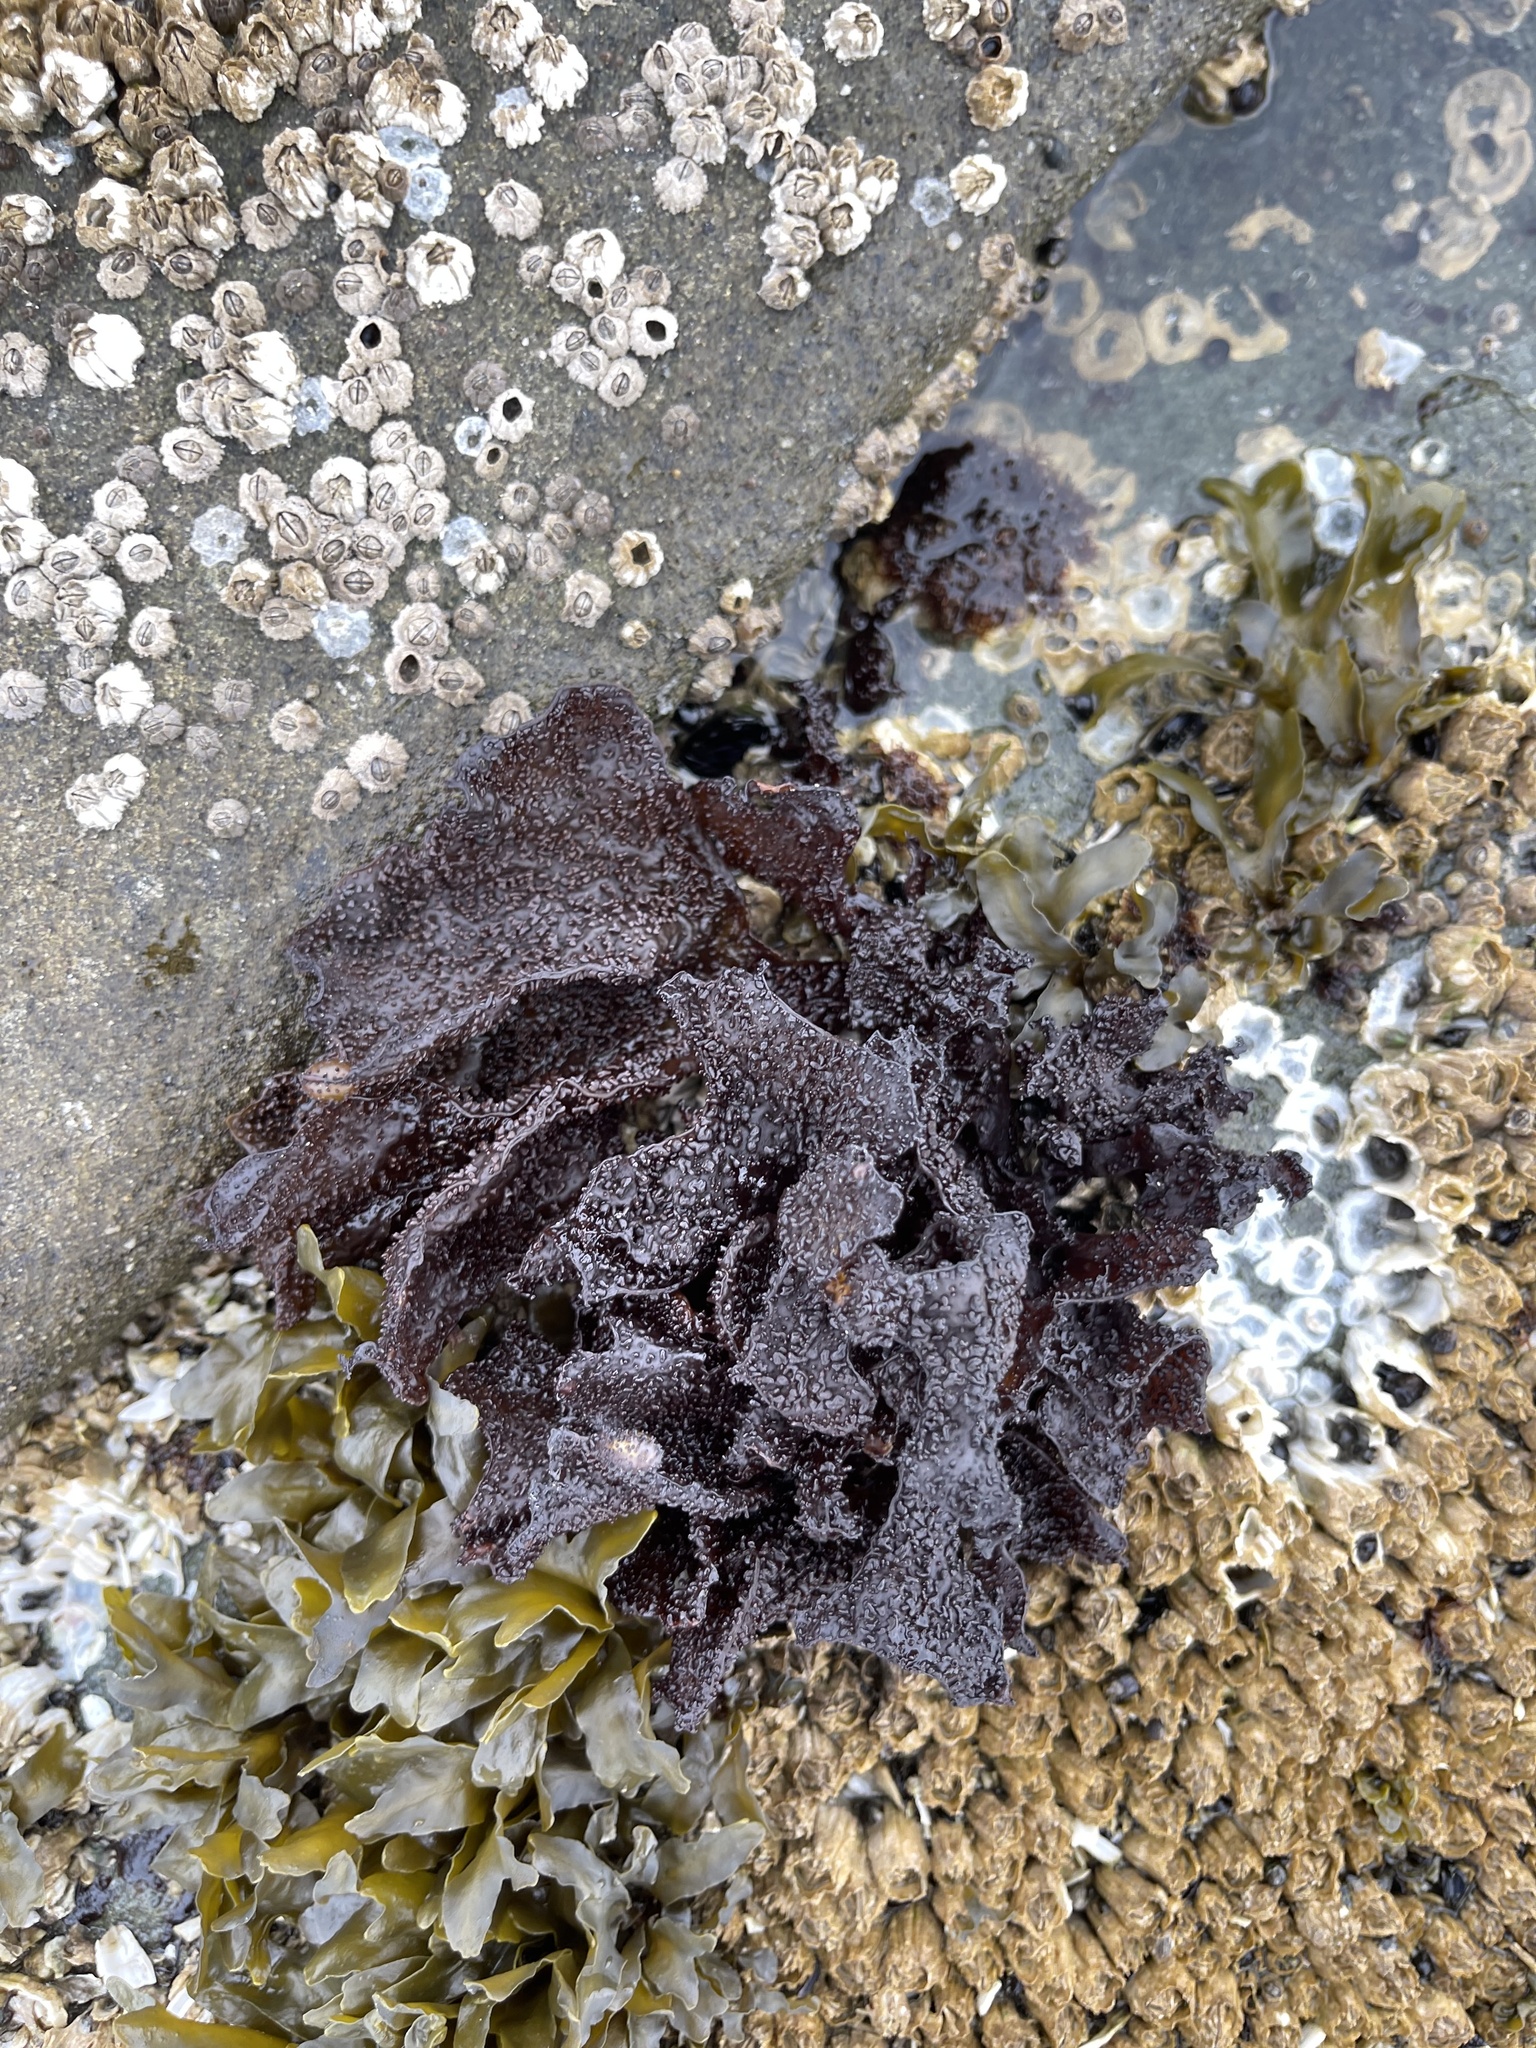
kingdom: Plantae
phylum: Rhodophyta
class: Florideophyceae
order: Gigartinales
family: Phyllophoraceae
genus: Mastocarpus
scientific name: Mastocarpus papillatus
